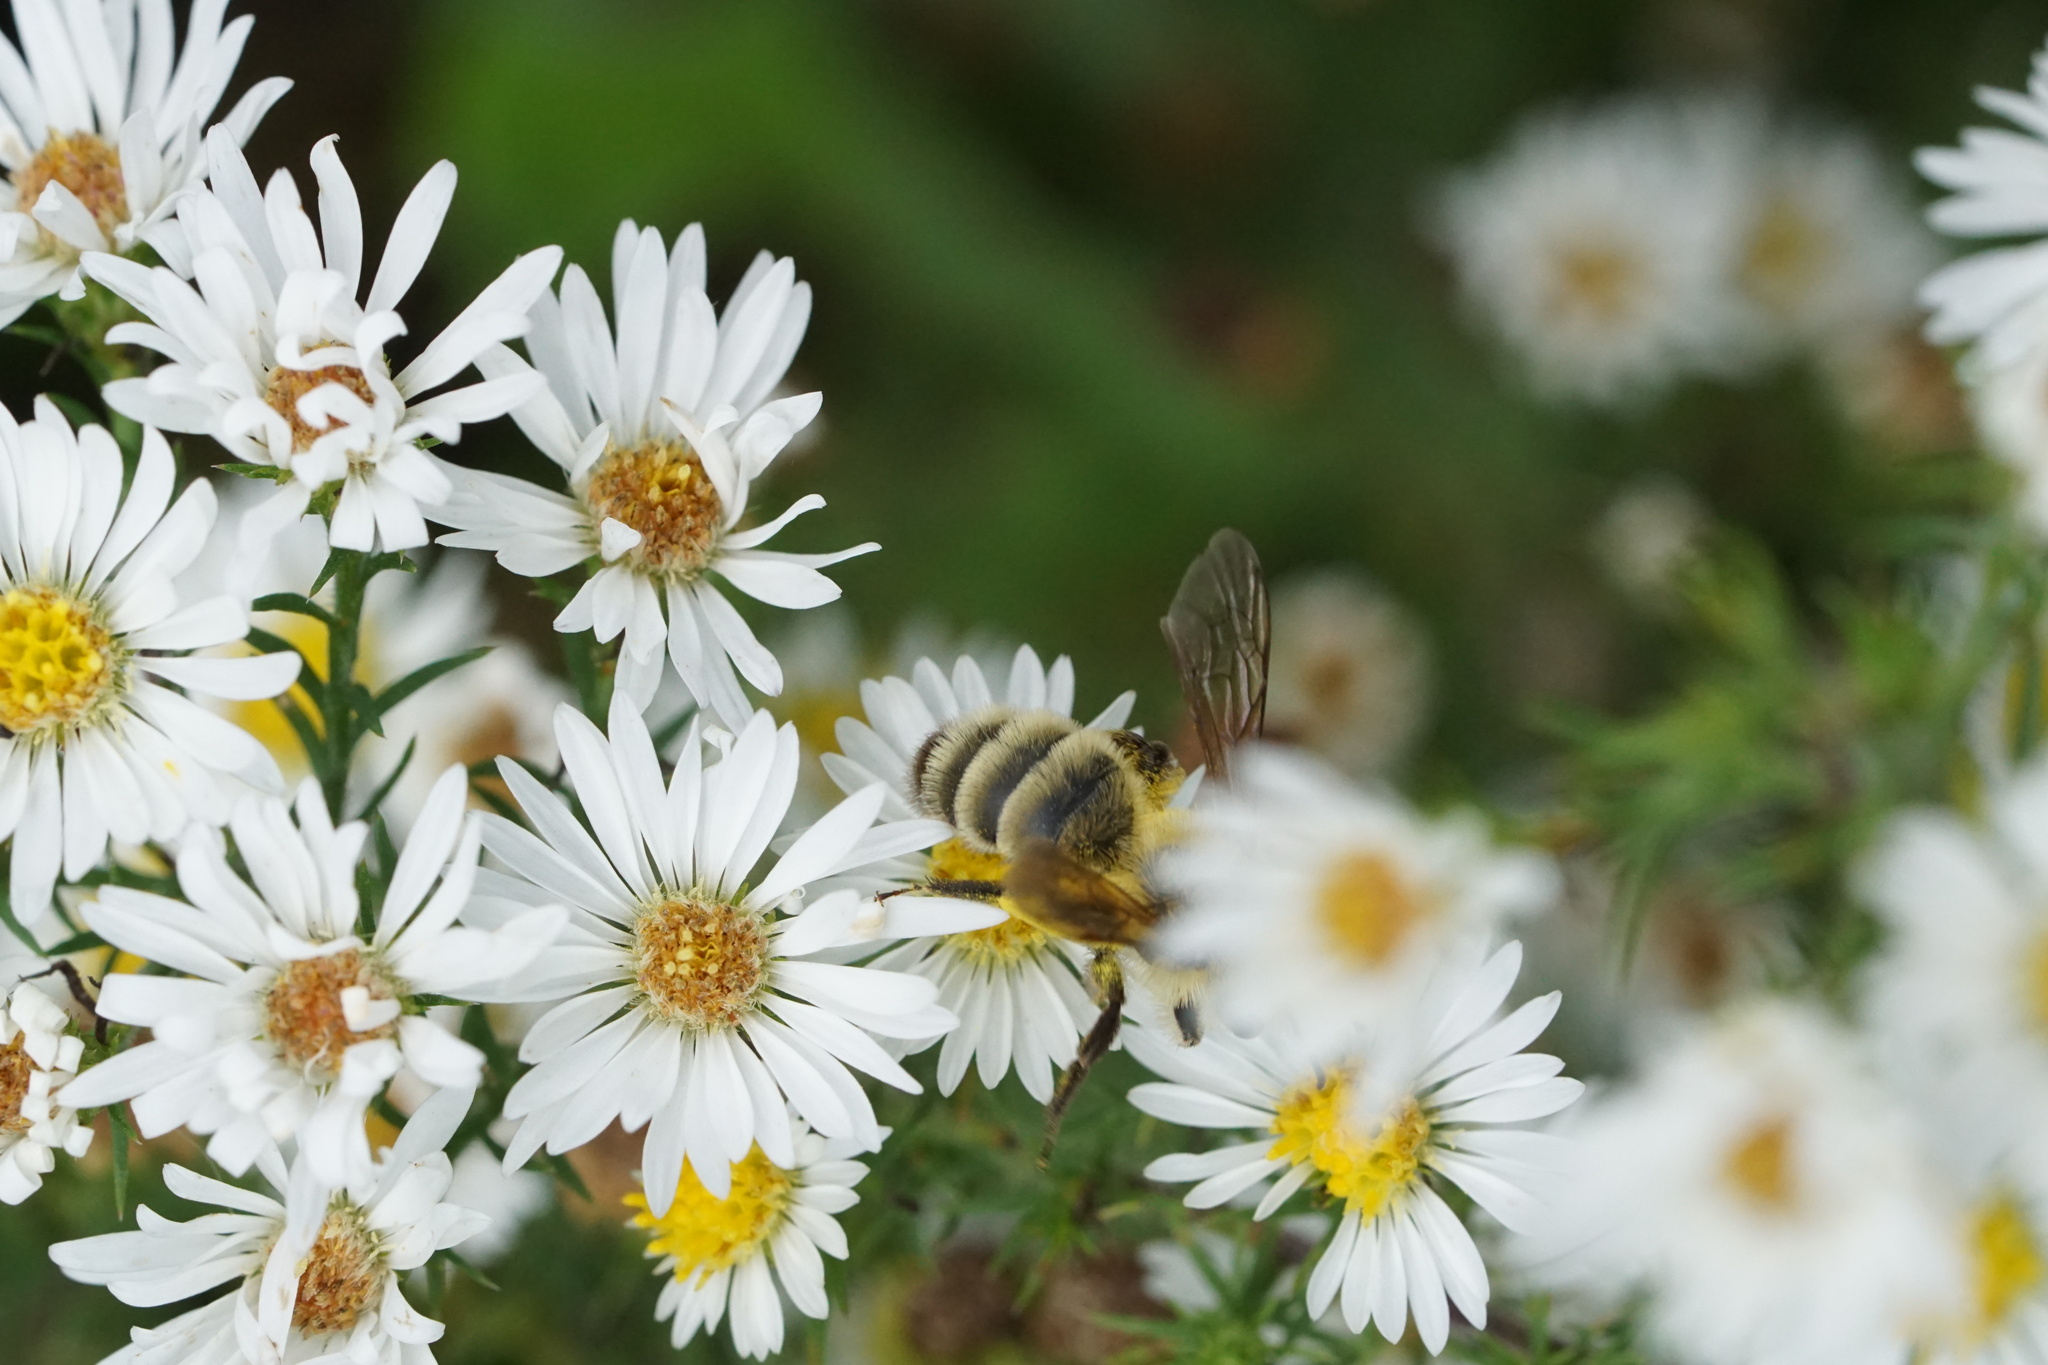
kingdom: Animalia
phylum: Arthropoda
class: Insecta
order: Hymenoptera
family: Andrenidae
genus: Andrena
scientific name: Andrena hirticincta
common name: Hairy-banded mining bee
